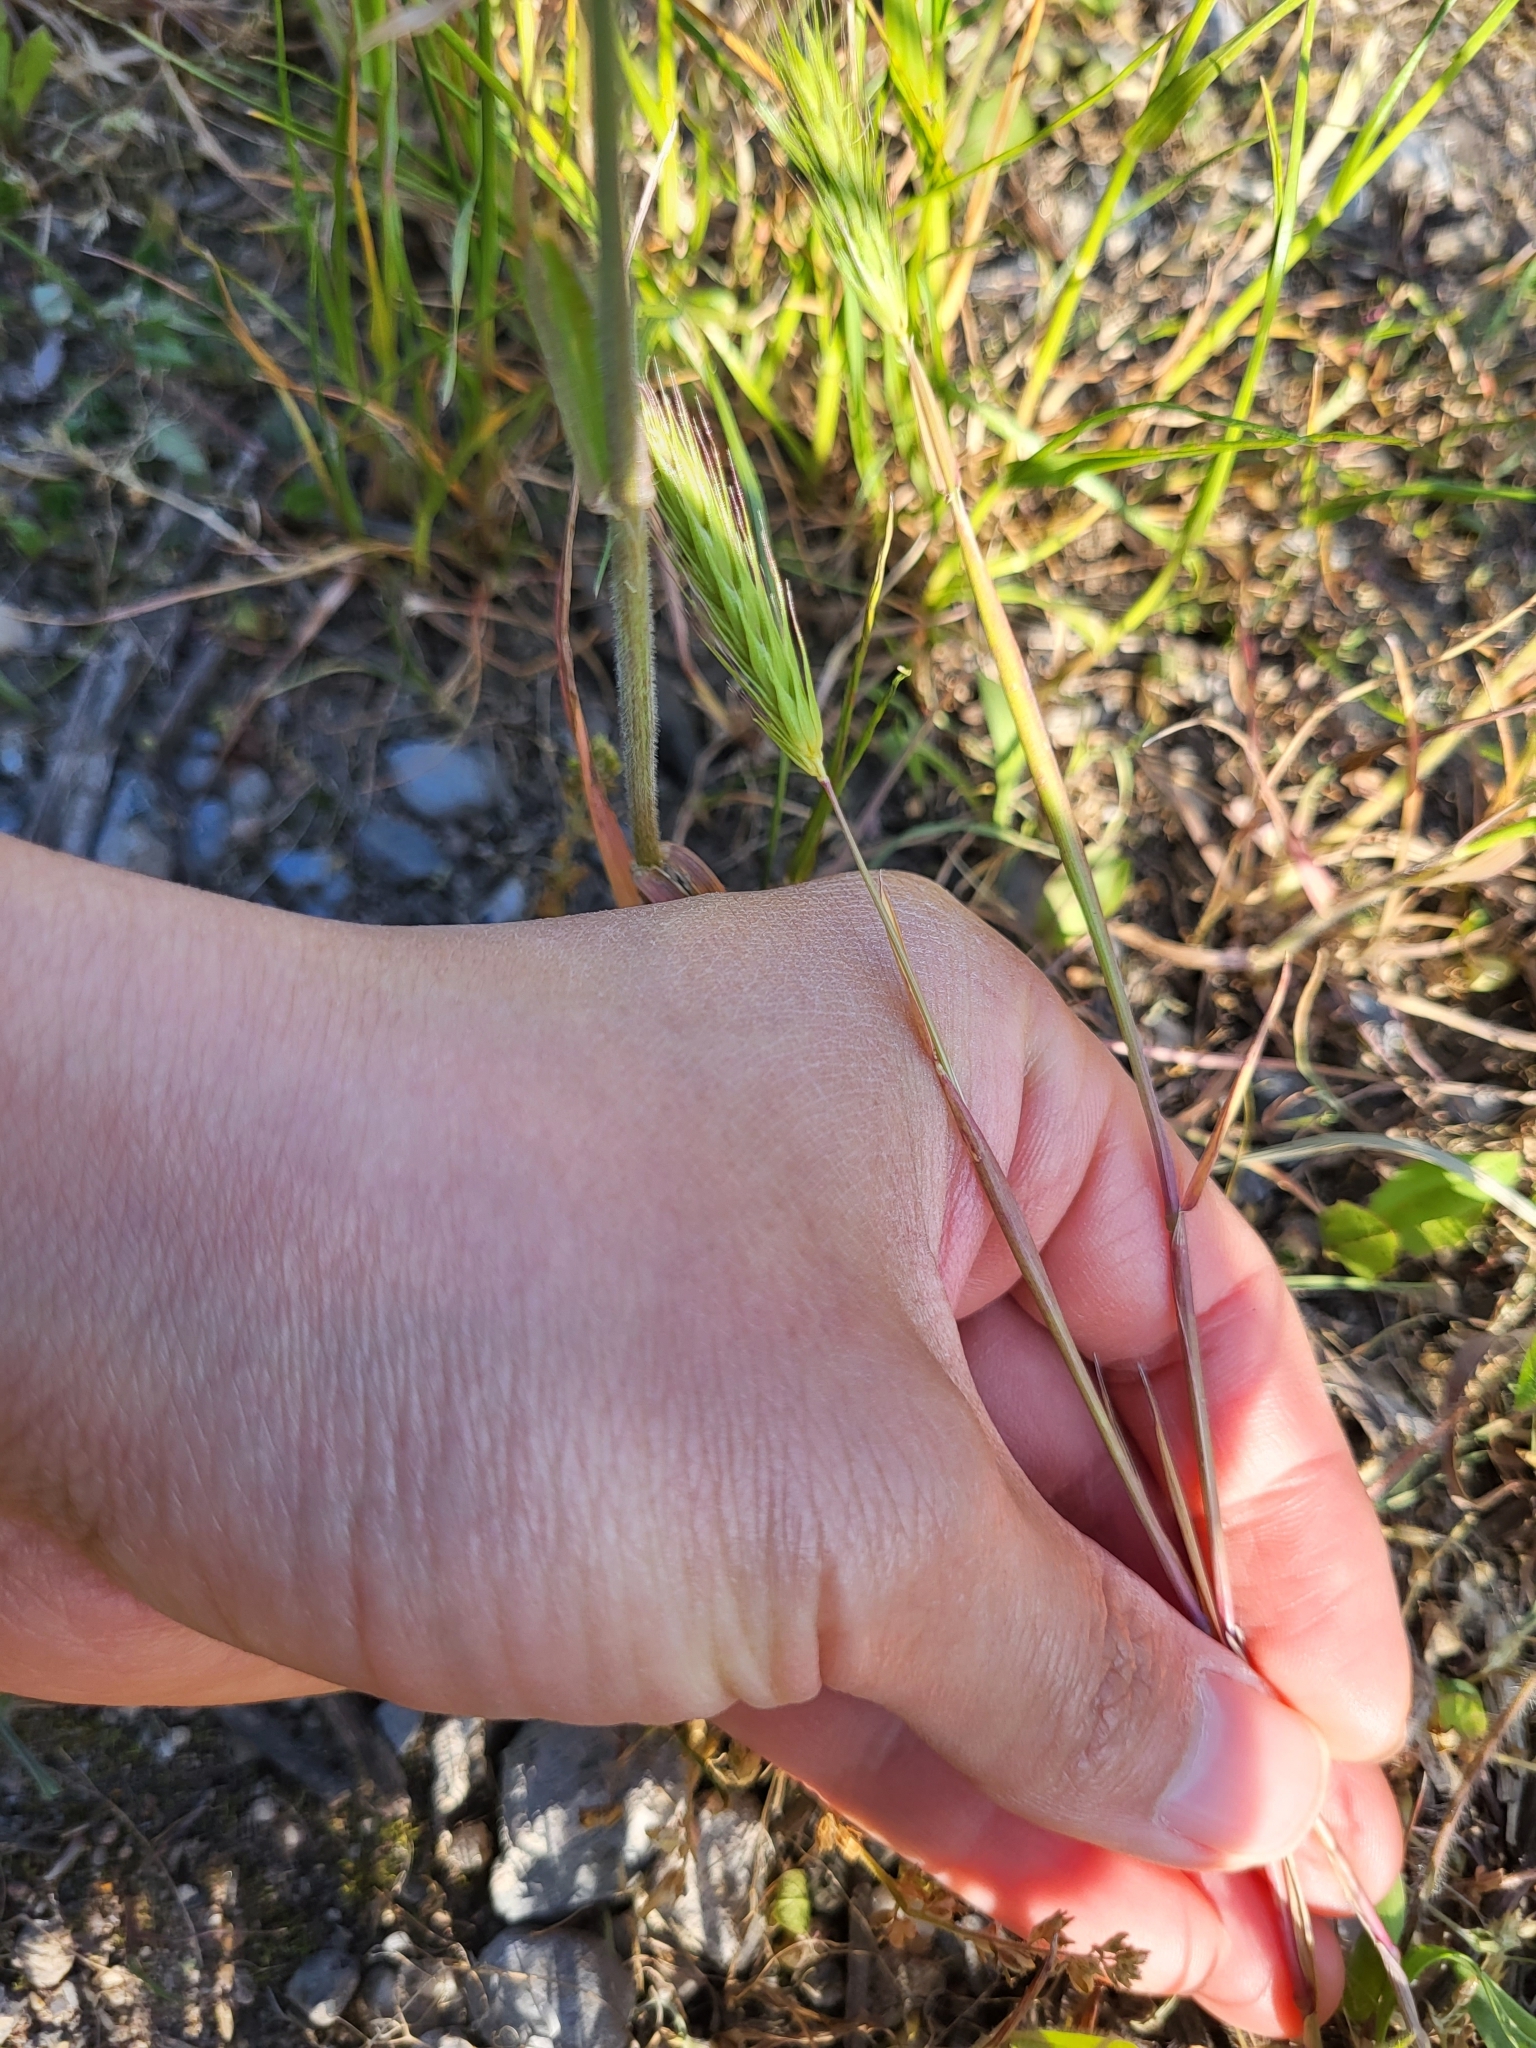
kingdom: Plantae
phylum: Tracheophyta
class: Liliopsida
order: Poales
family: Poaceae
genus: Hordeum
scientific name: Hordeum pusillum
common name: Little barley
